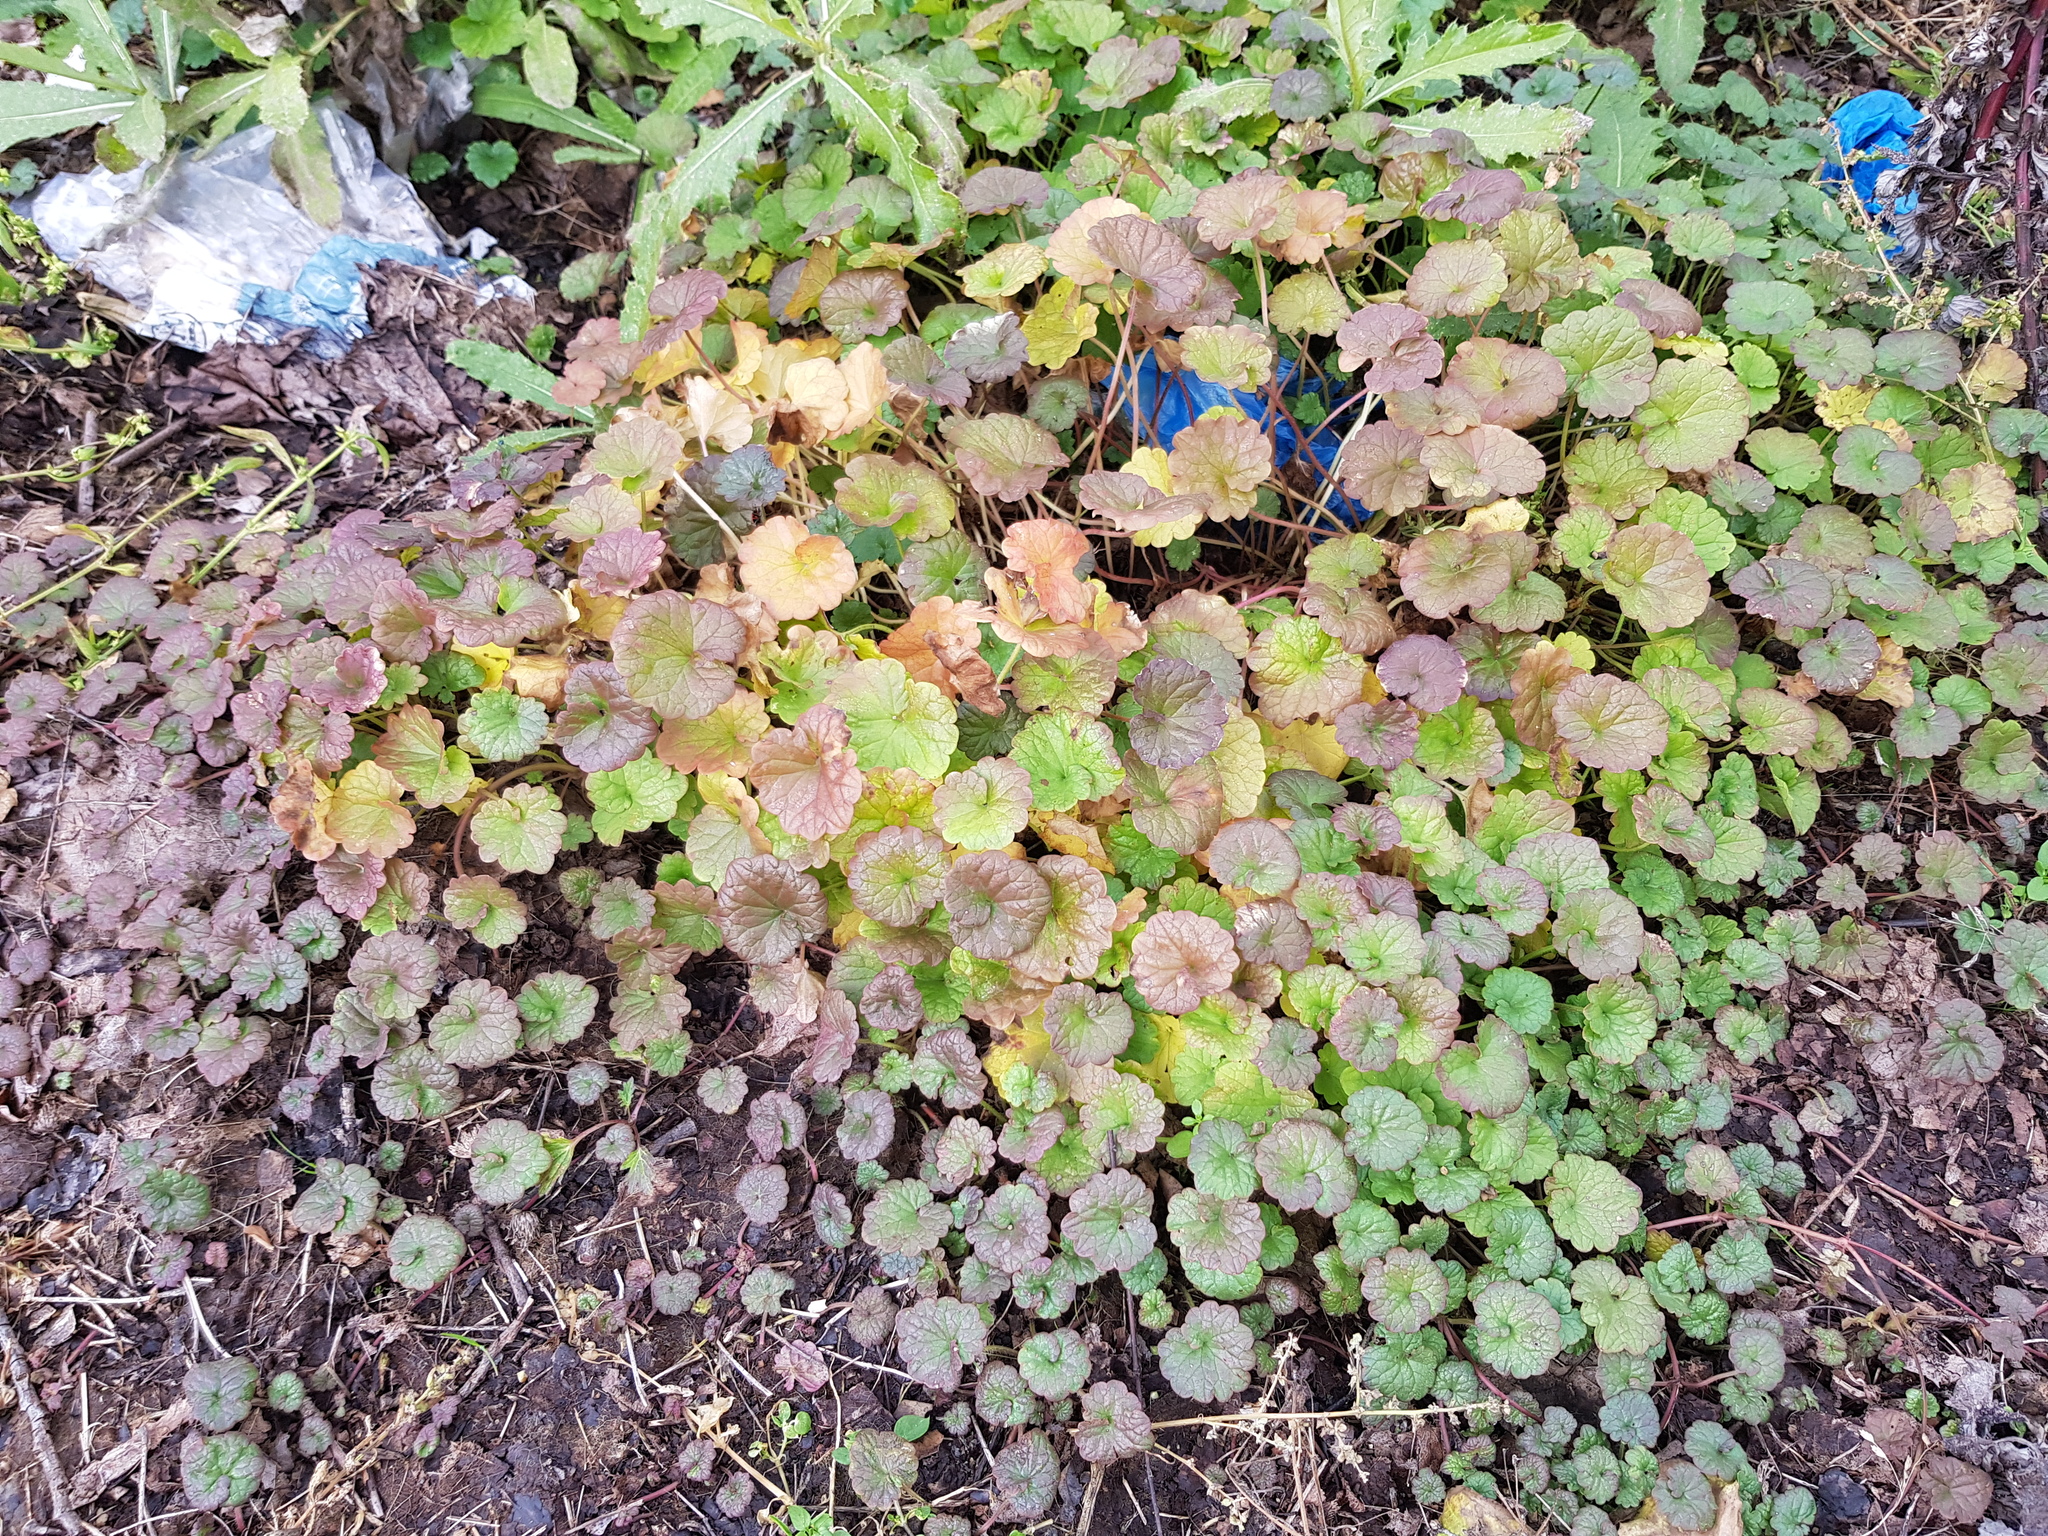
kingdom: Plantae
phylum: Tracheophyta
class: Magnoliopsida
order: Lamiales
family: Lamiaceae
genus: Glechoma
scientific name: Glechoma hederacea
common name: Ground ivy
